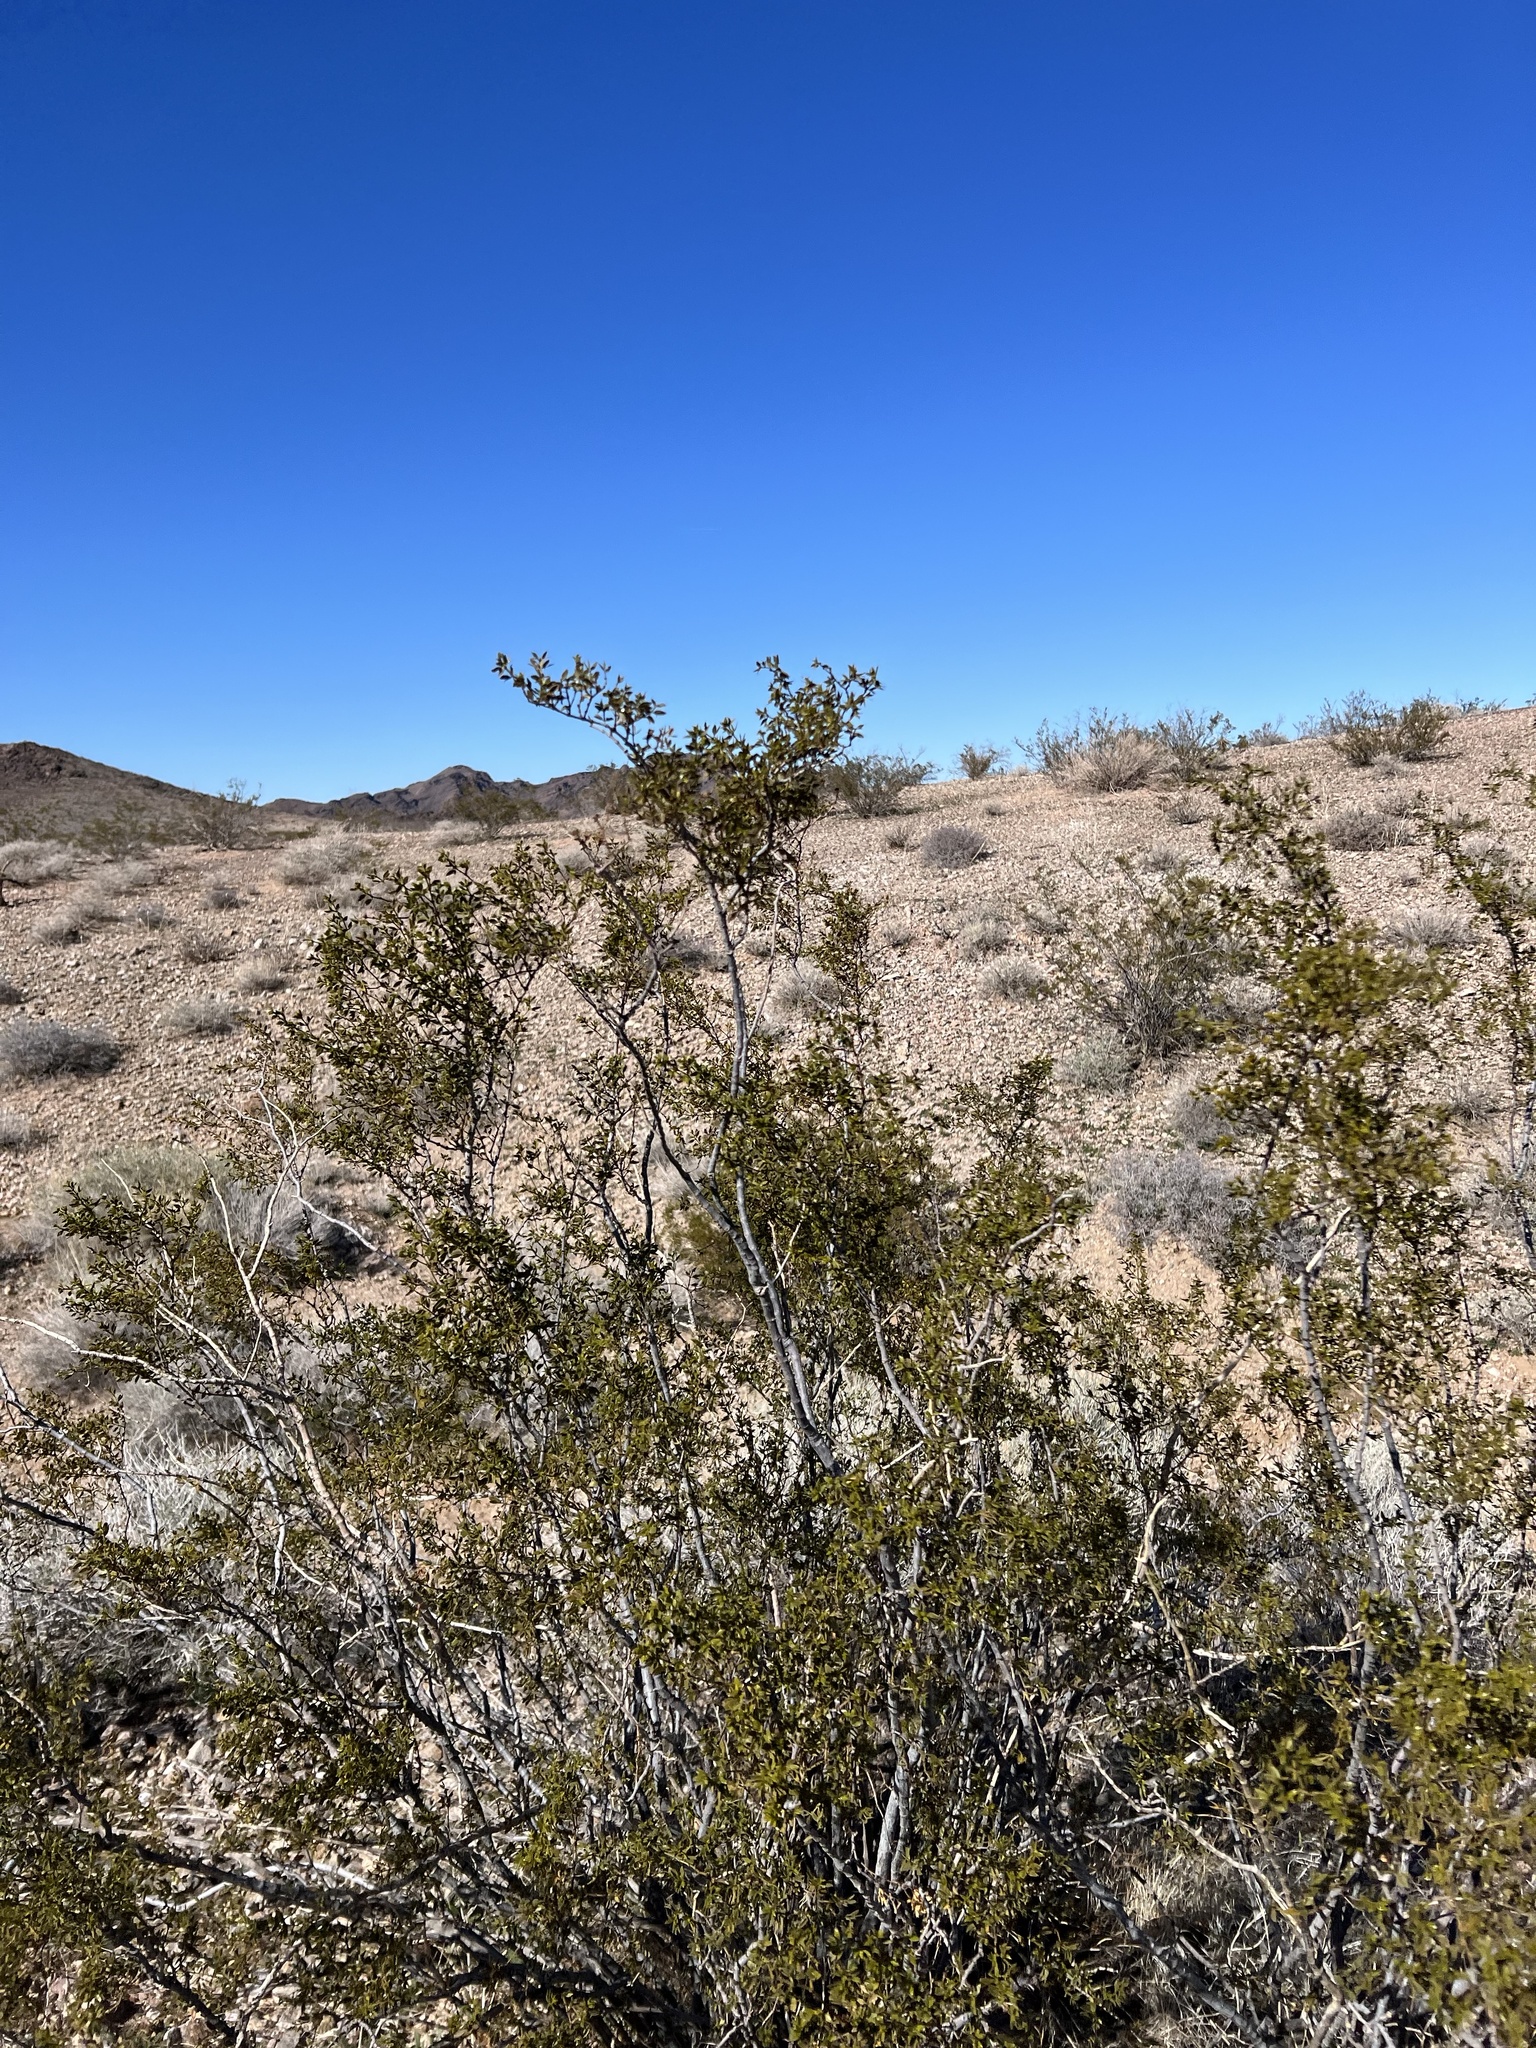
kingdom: Plantae
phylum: Tracheophyta
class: Magnoliopsida
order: Zygophyllales
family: Zygophyllaceae
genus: Larrea
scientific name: Larrea tridentata
